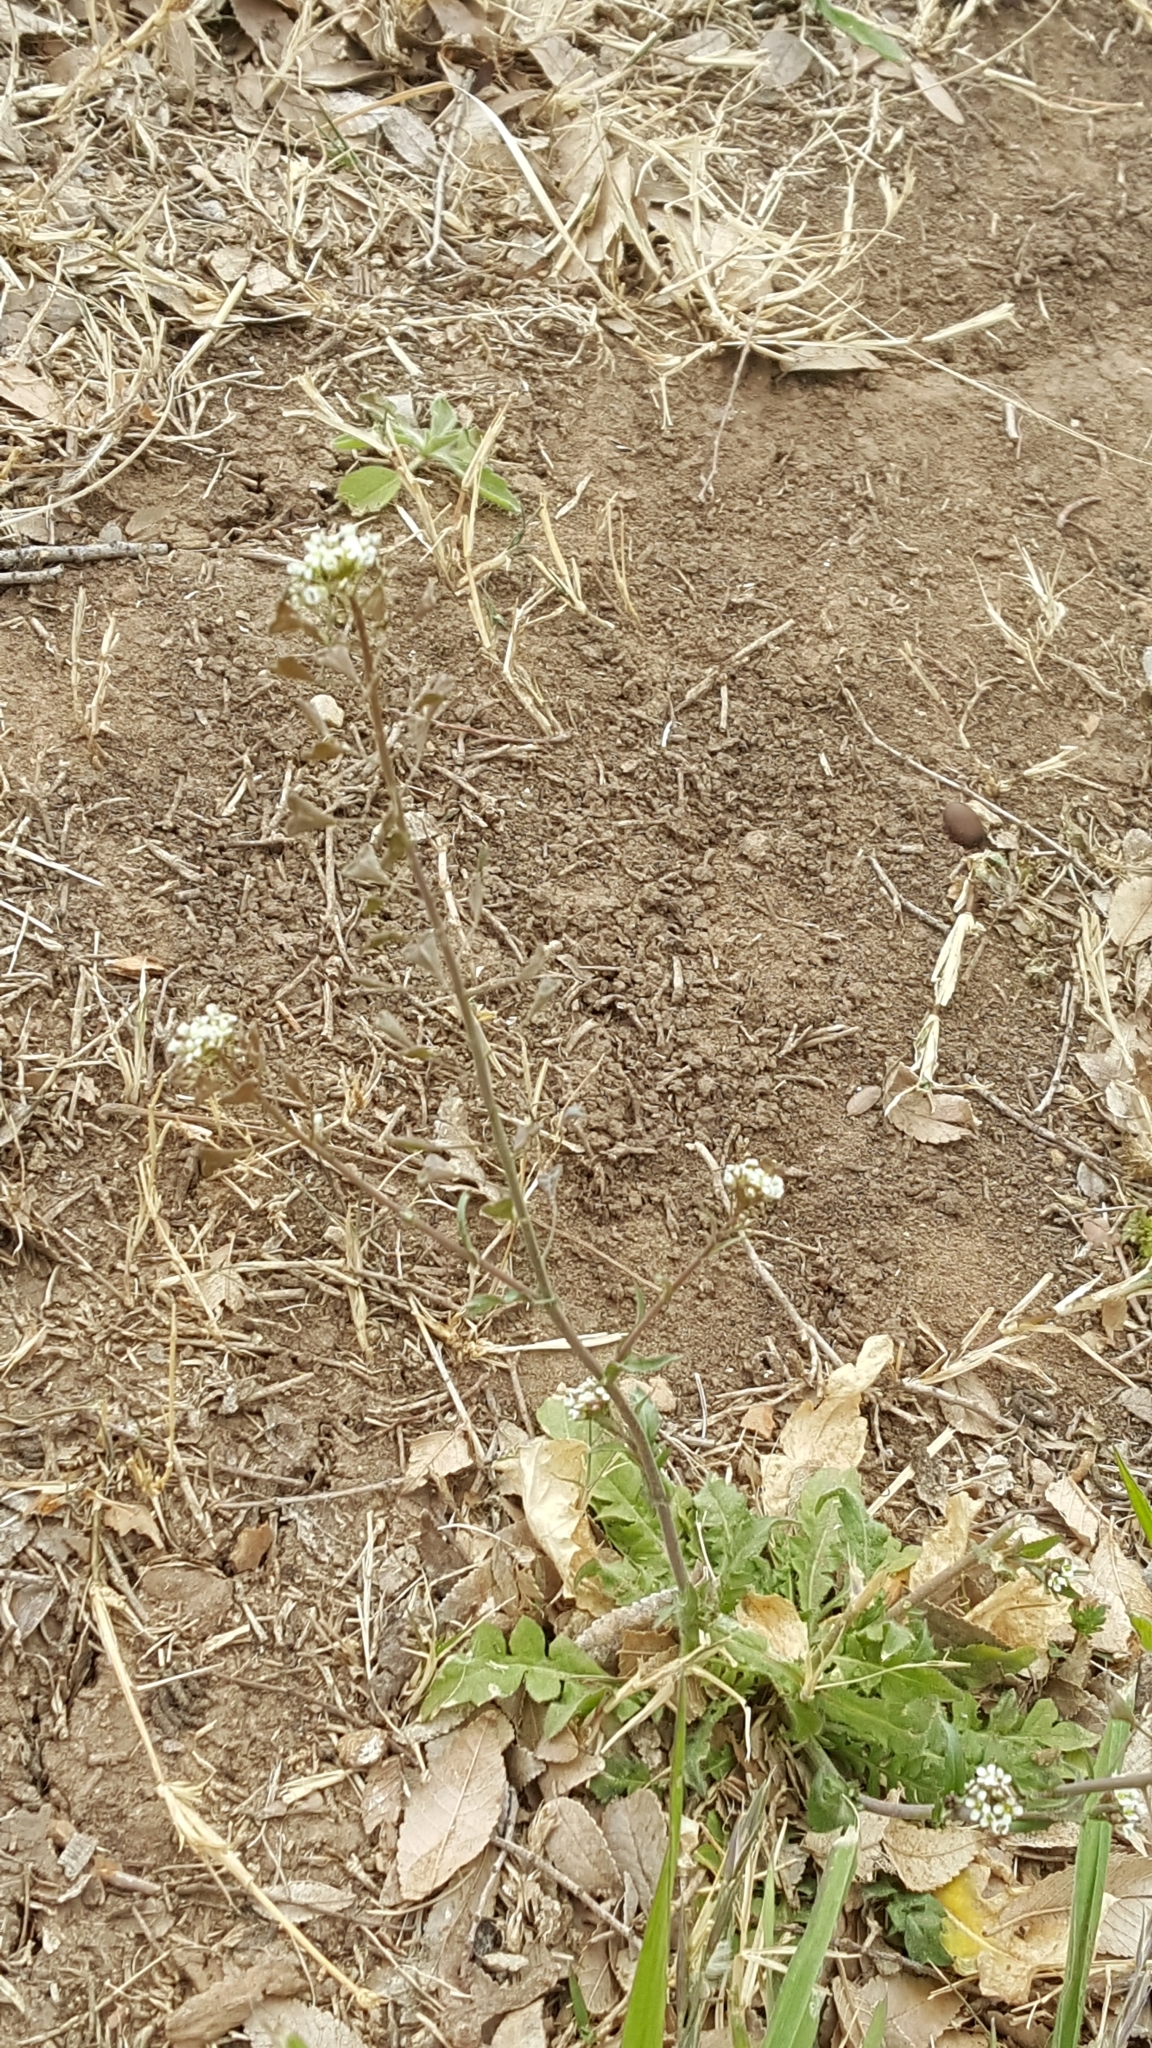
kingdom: Plantae
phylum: Tracheophyta
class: Magnoliopsida
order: Brassicales
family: Brassicaceae
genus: Capsella
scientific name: Capsella bursa-pastoris
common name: Shepherd's purse
